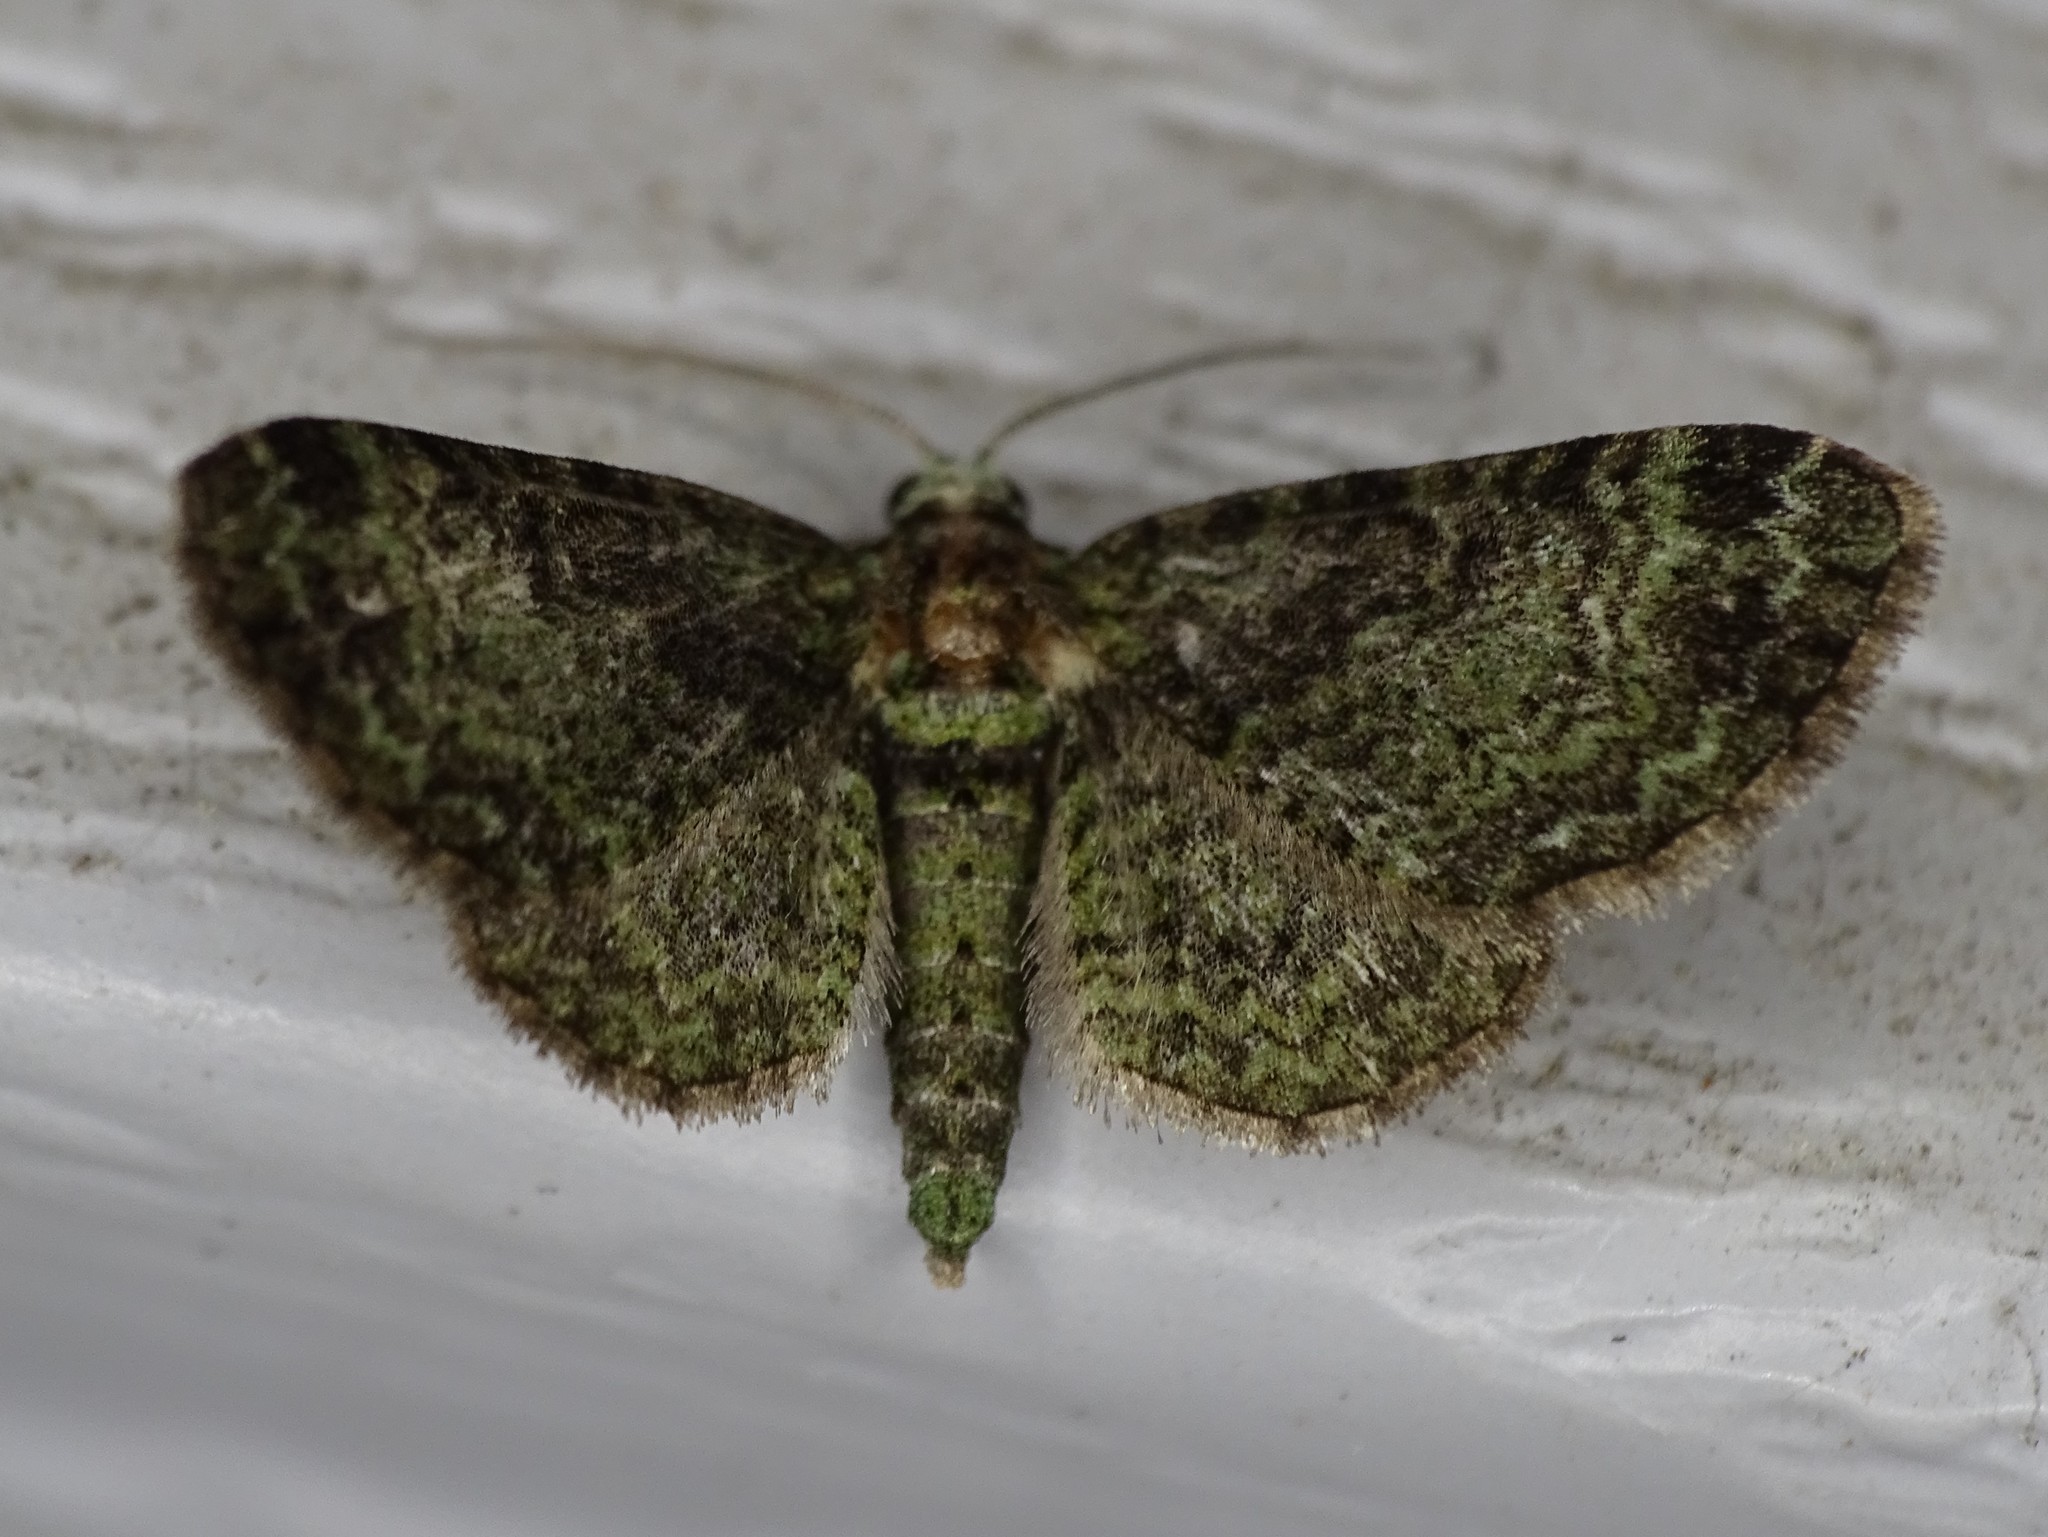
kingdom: Animalia
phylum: Arthropoda
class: Insecta
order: Lepidoptera
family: Geometridae
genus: Pasiphila
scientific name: Pasiphila rectangulata
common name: Green pug
